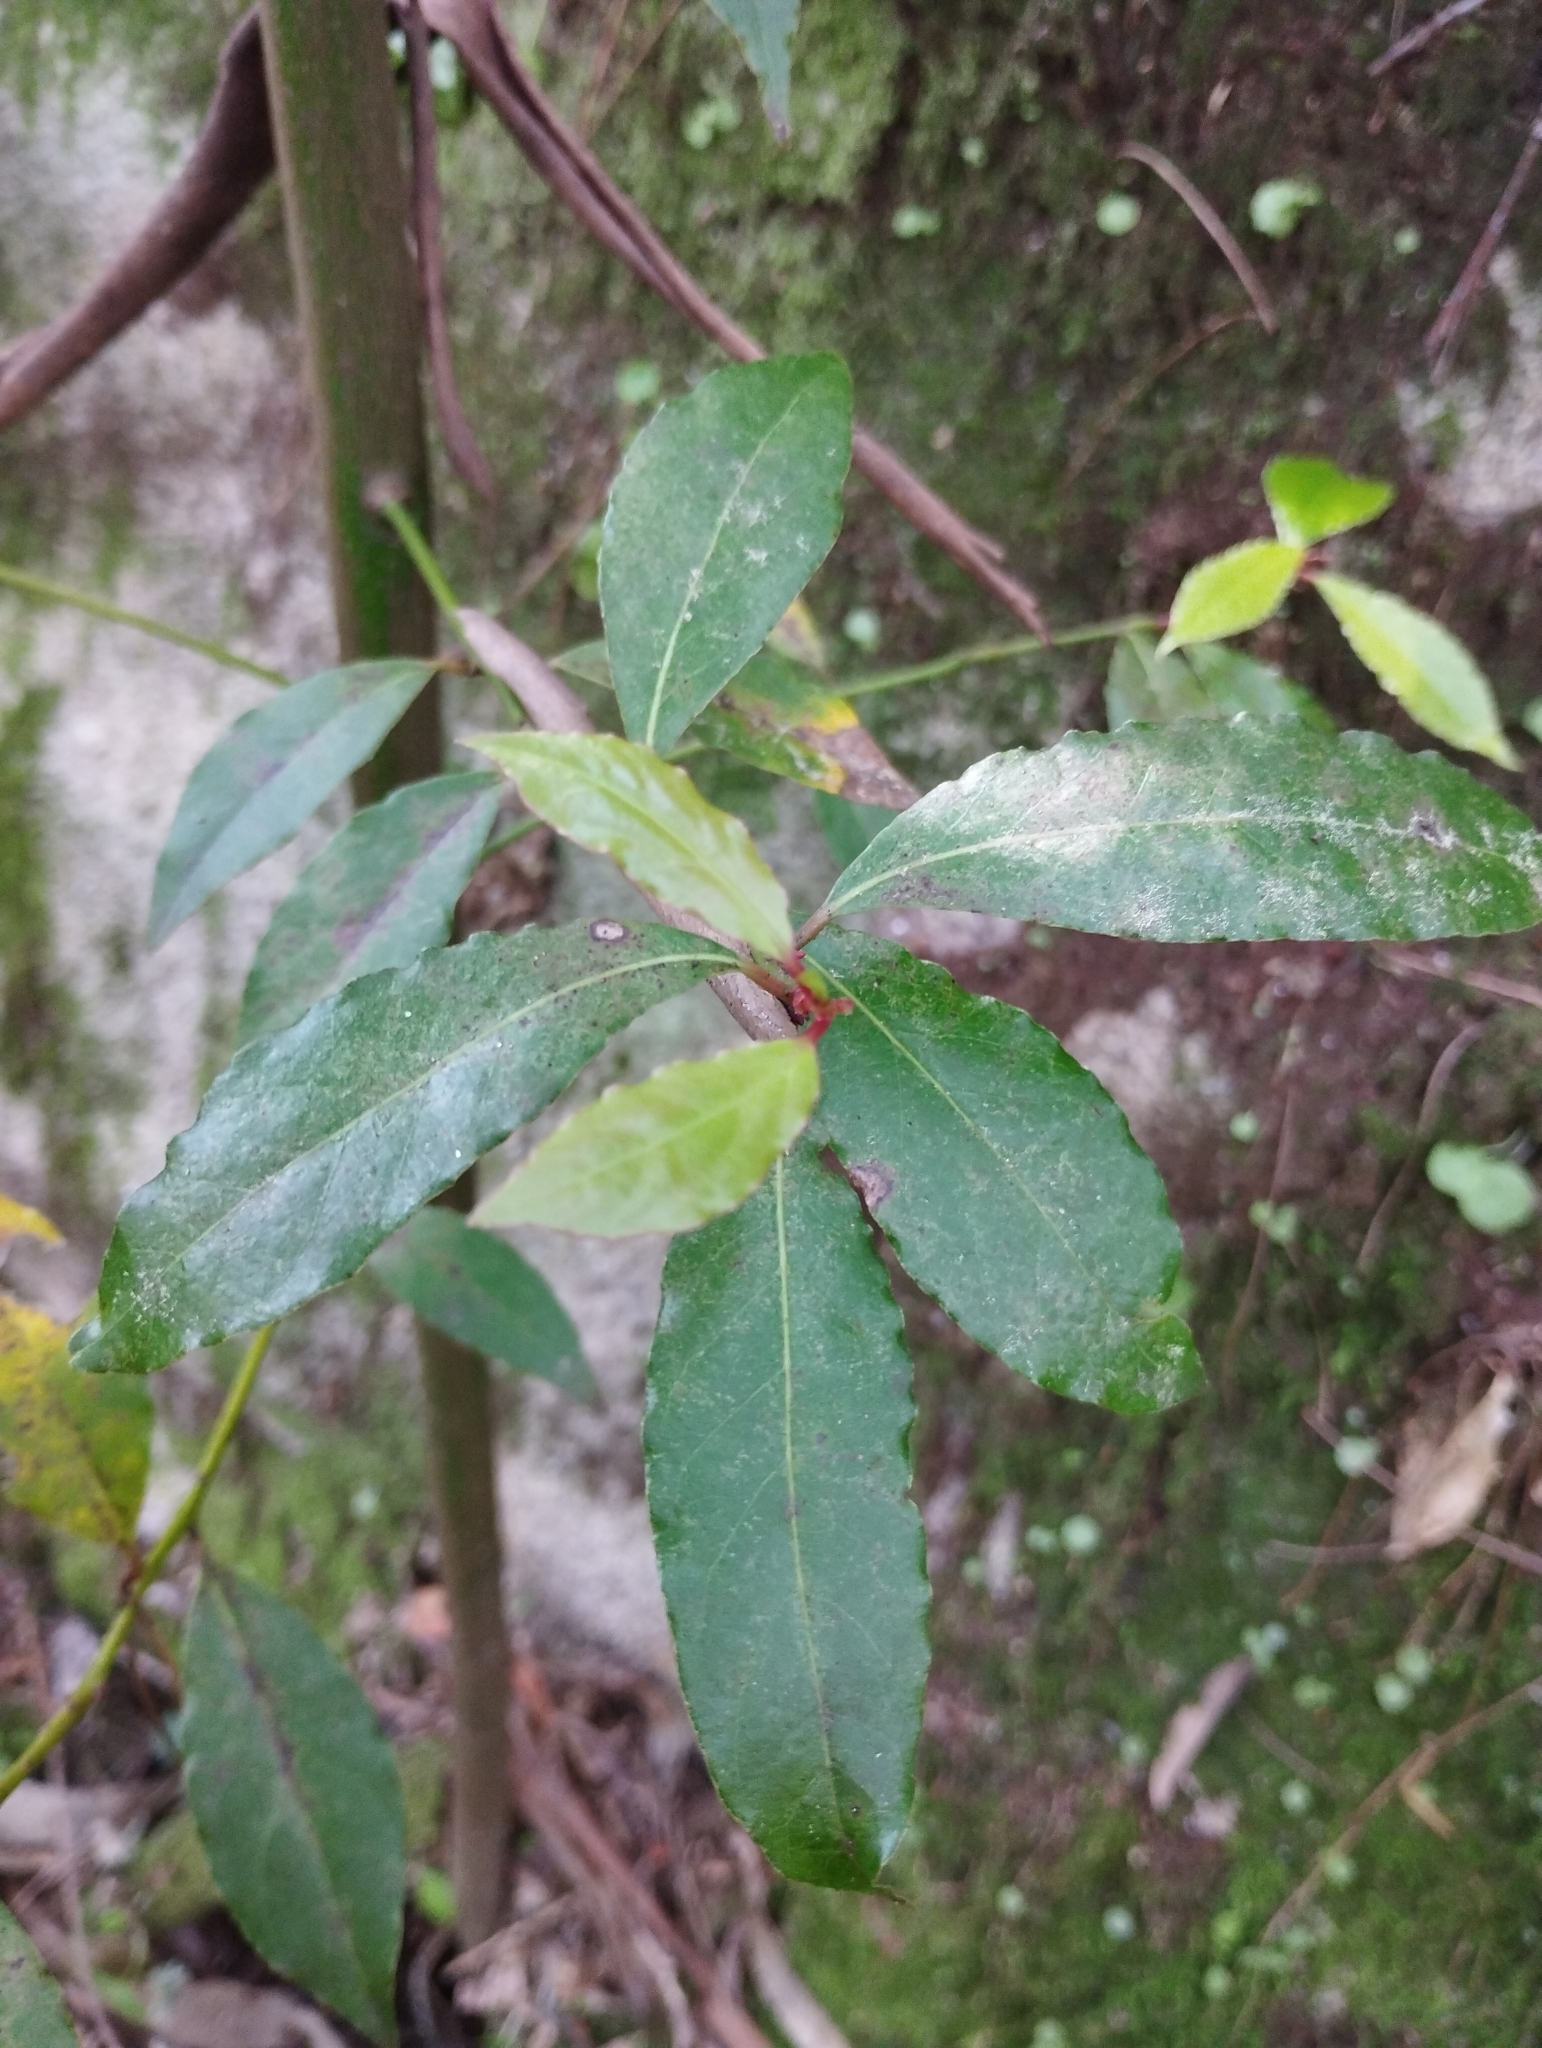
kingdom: Plantae
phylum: Tracheophyta
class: Magnoliopsida
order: Laurales
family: Lauraceae
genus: Laurus
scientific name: Laurus nobilis
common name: Bay
